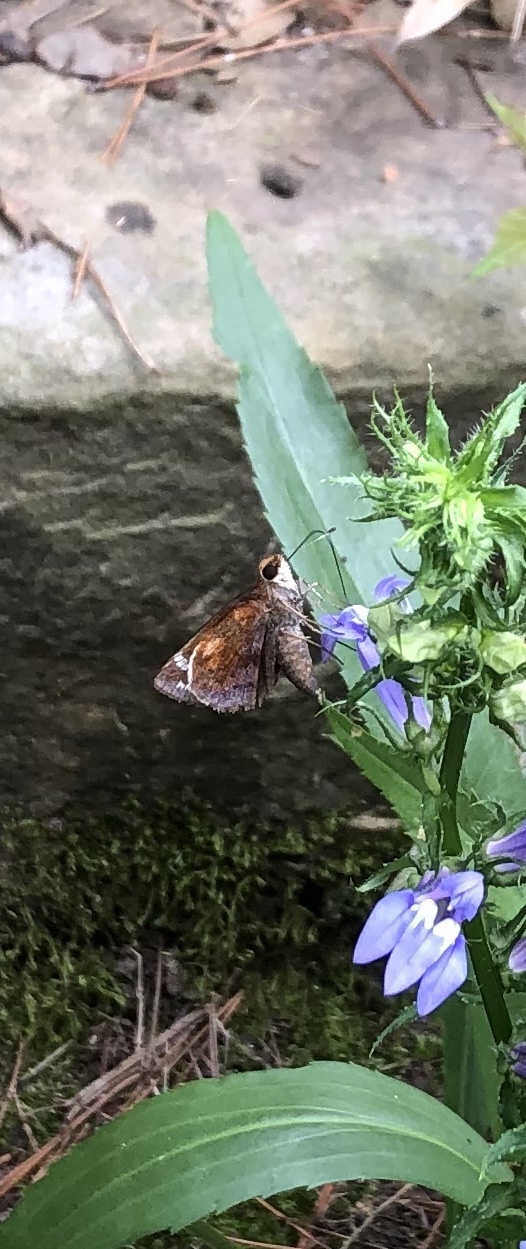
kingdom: Animalia
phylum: Arthropoda
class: Insecta
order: Lepidoptera
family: Hesperiidae
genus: Lon
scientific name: Lon zabulon
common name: Zabulon skipper
